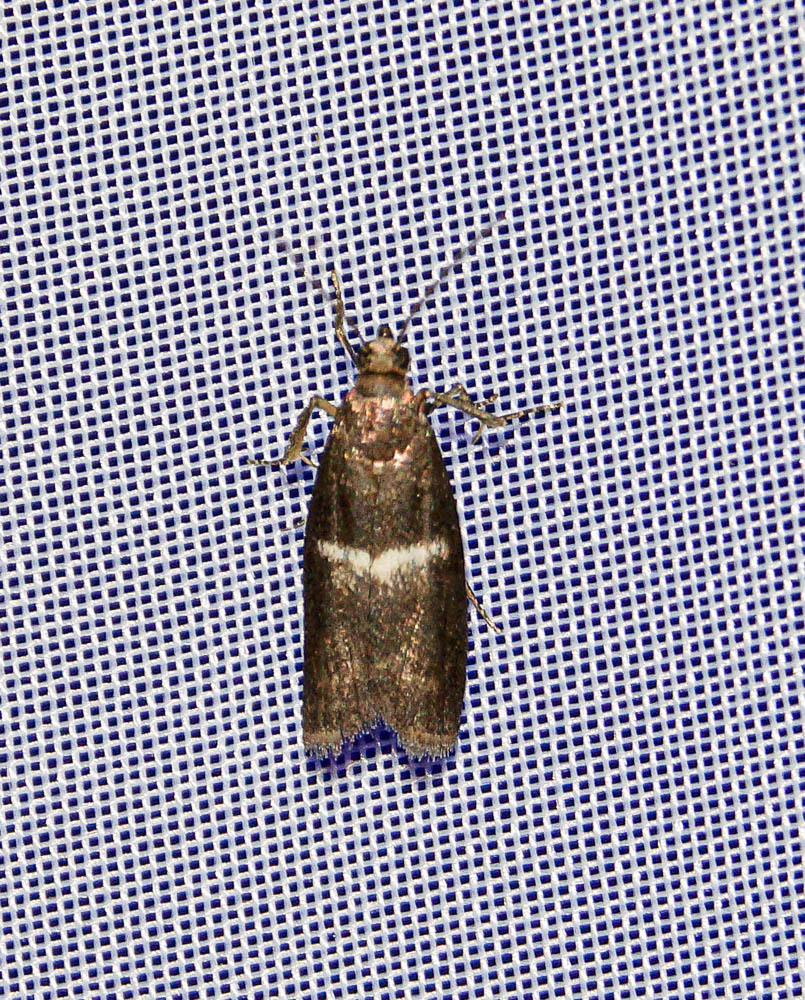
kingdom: Animalia
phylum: Arthropoda
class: Insecta
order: Lepidoptera
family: Pyralidae
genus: Elegia
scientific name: Elegia similella
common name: White-barred knot-horn
